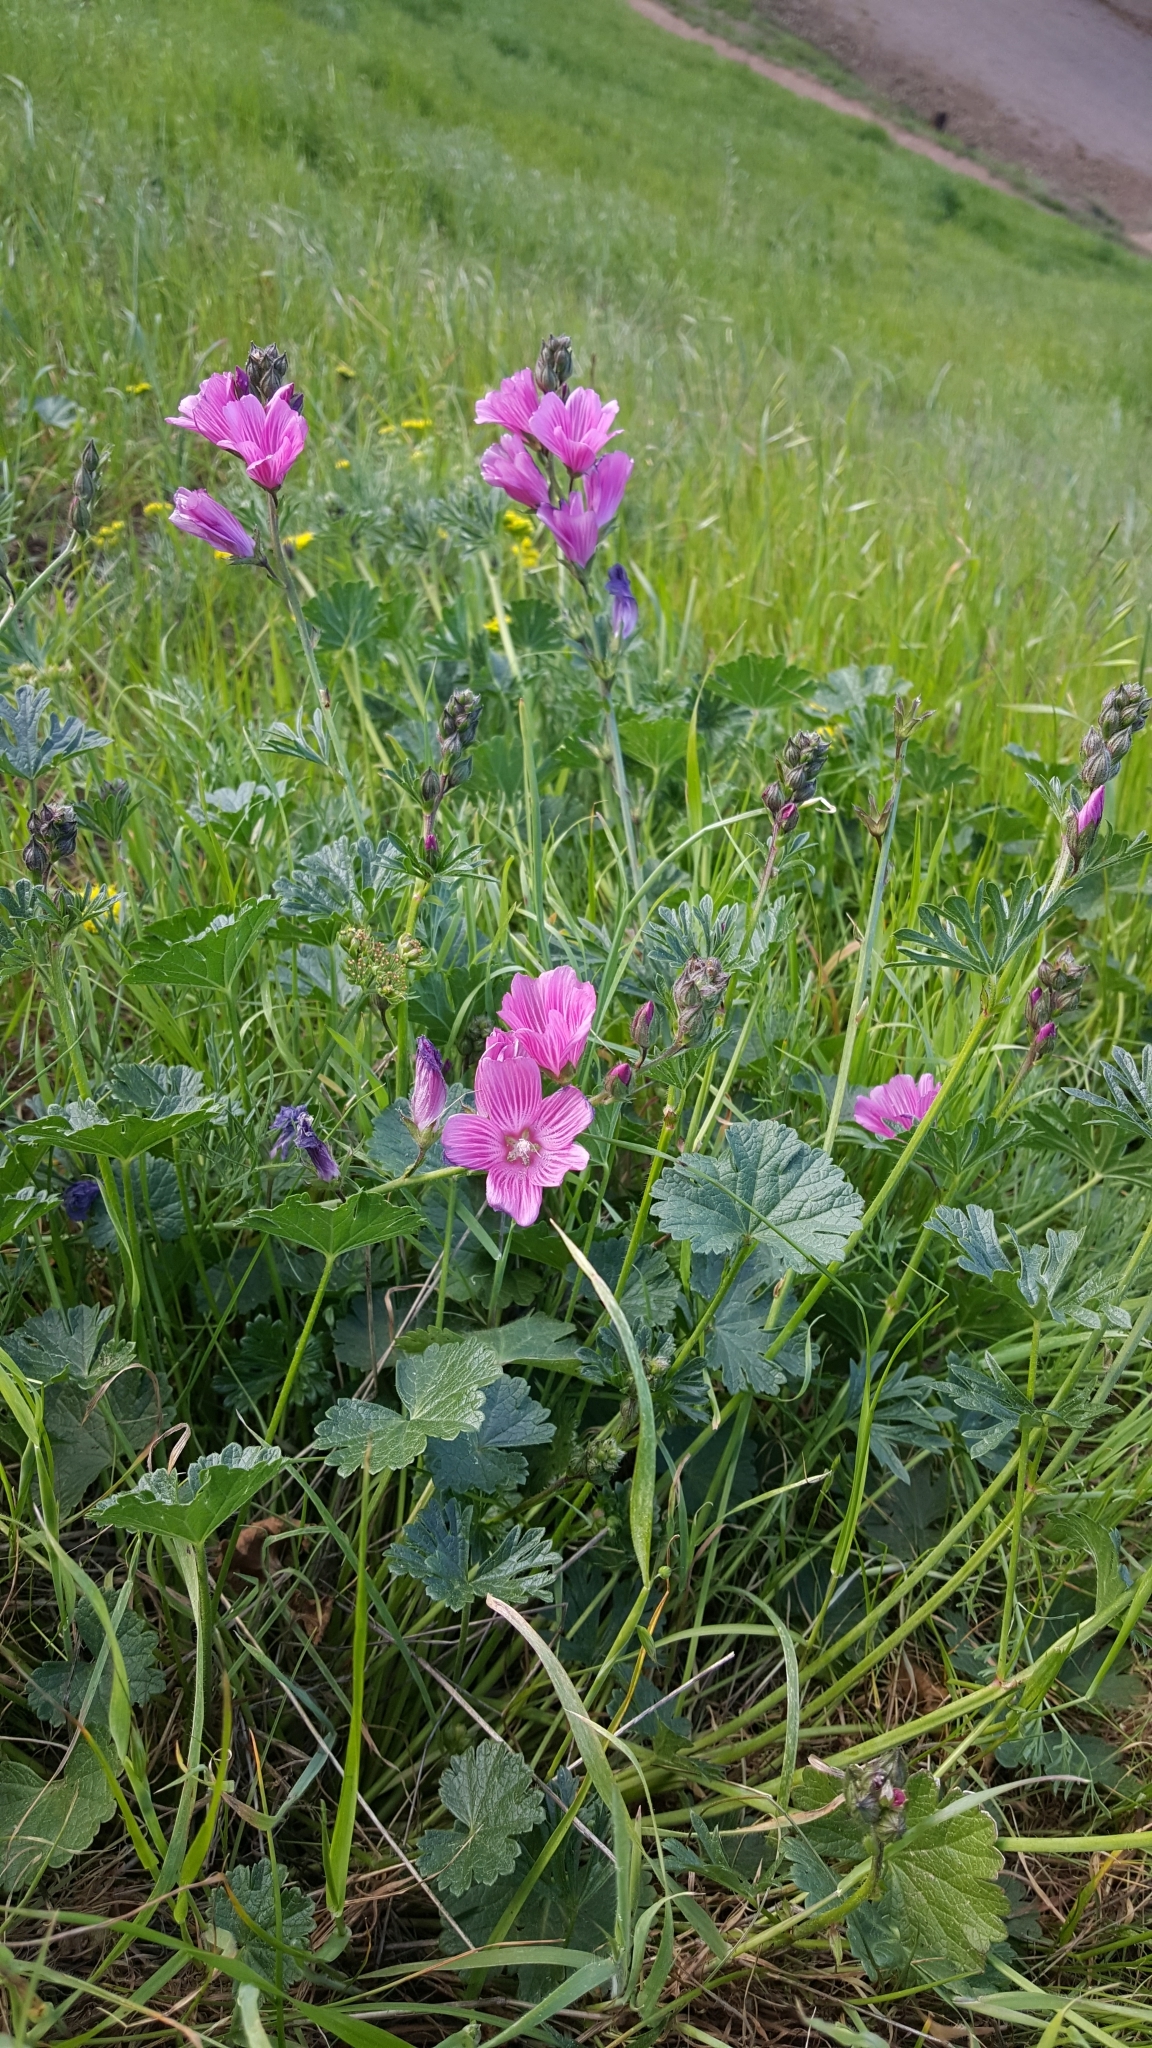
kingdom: Plantae
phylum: Tracheophyta
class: Magnoliopsida
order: Malvales
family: Malvaceae
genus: Sidalcea
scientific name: Sidalcea malviflora
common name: Greek mallow
